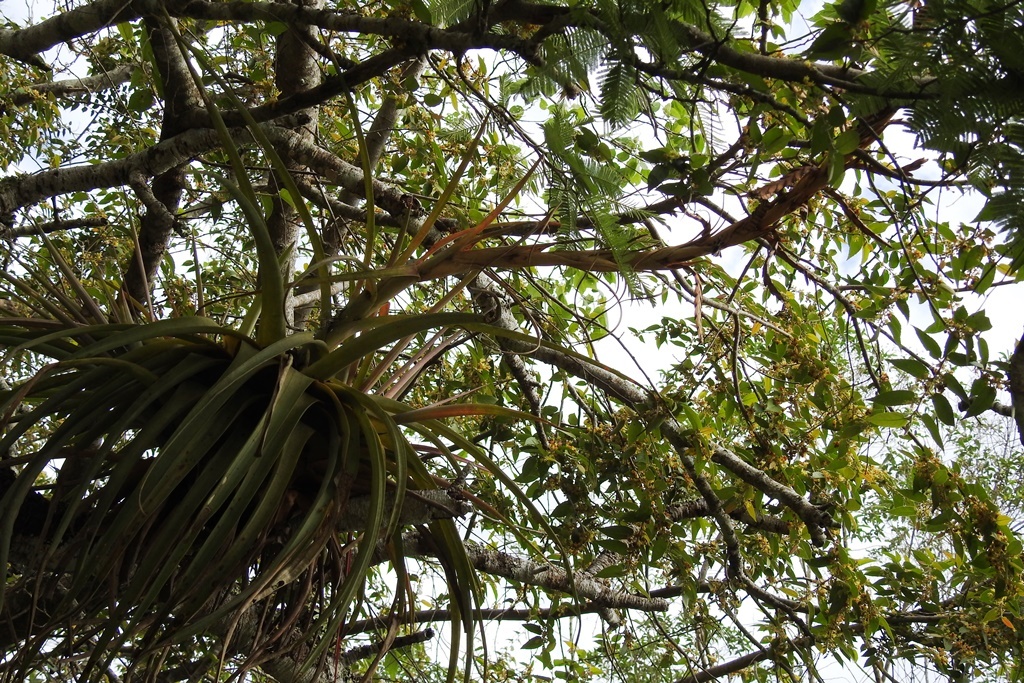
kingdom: Plantae
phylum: Tracheophyta
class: Liliopsida
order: Poales
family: Bromeliaceae
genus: Tillandsia
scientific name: Tillandsia rodrigueziana
